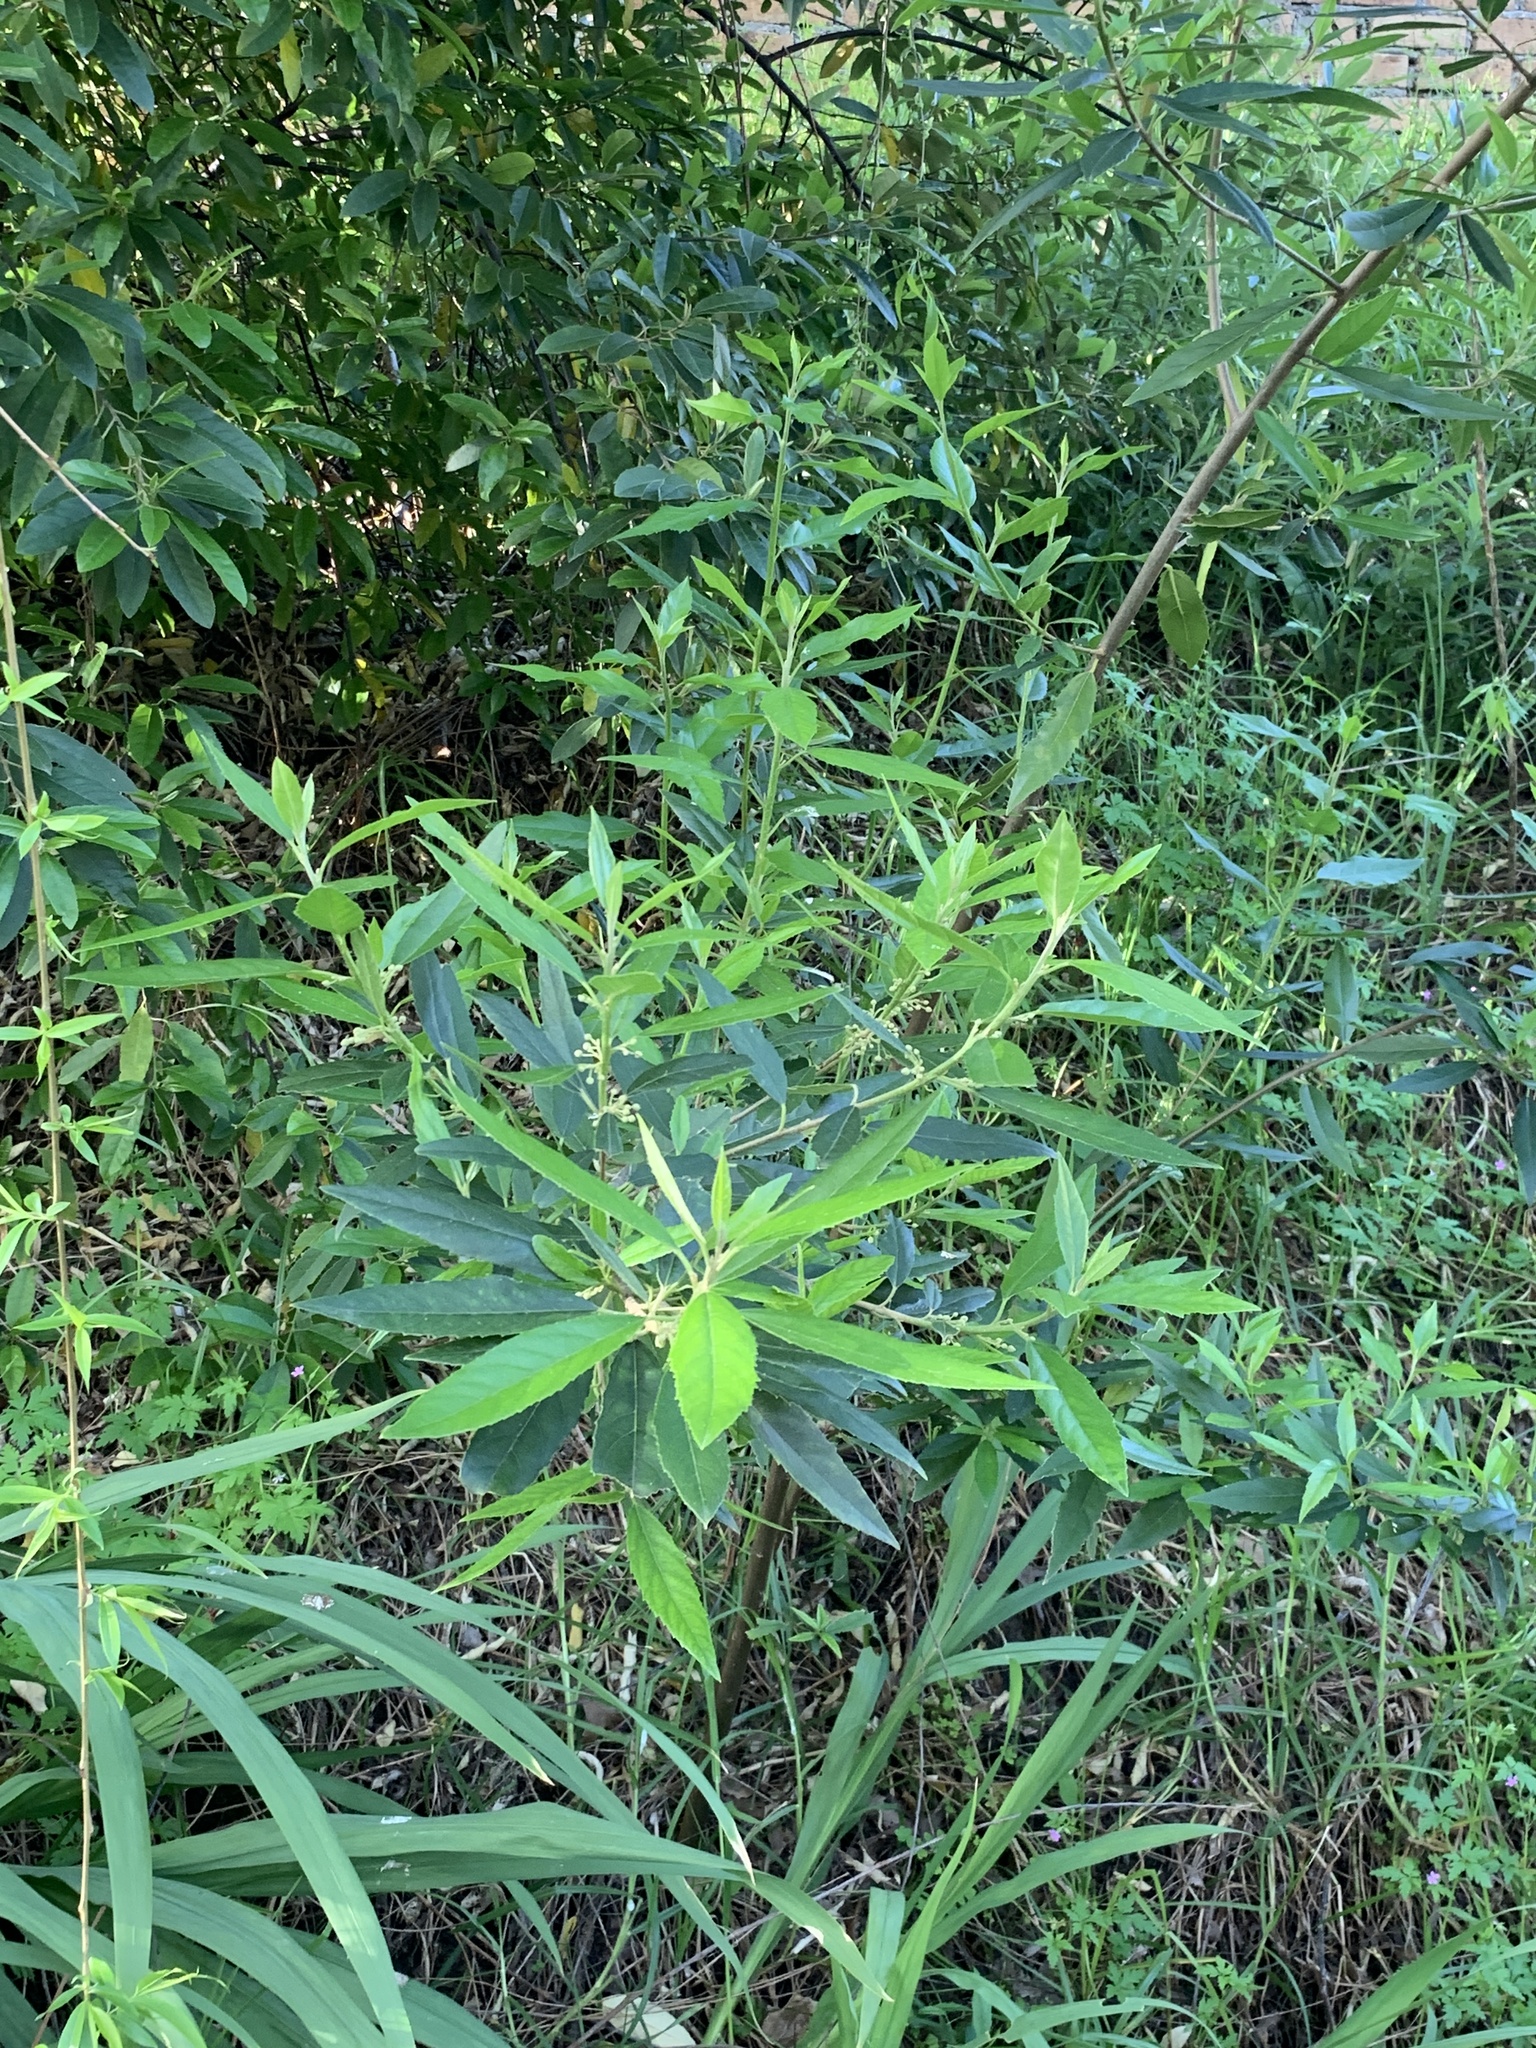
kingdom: Plantae
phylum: Tracheophyta
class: Magnoliopsida
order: Malpighiales
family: Achariaceae
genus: Kiggelaria
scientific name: Kiggelaria africana
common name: Wild peach
